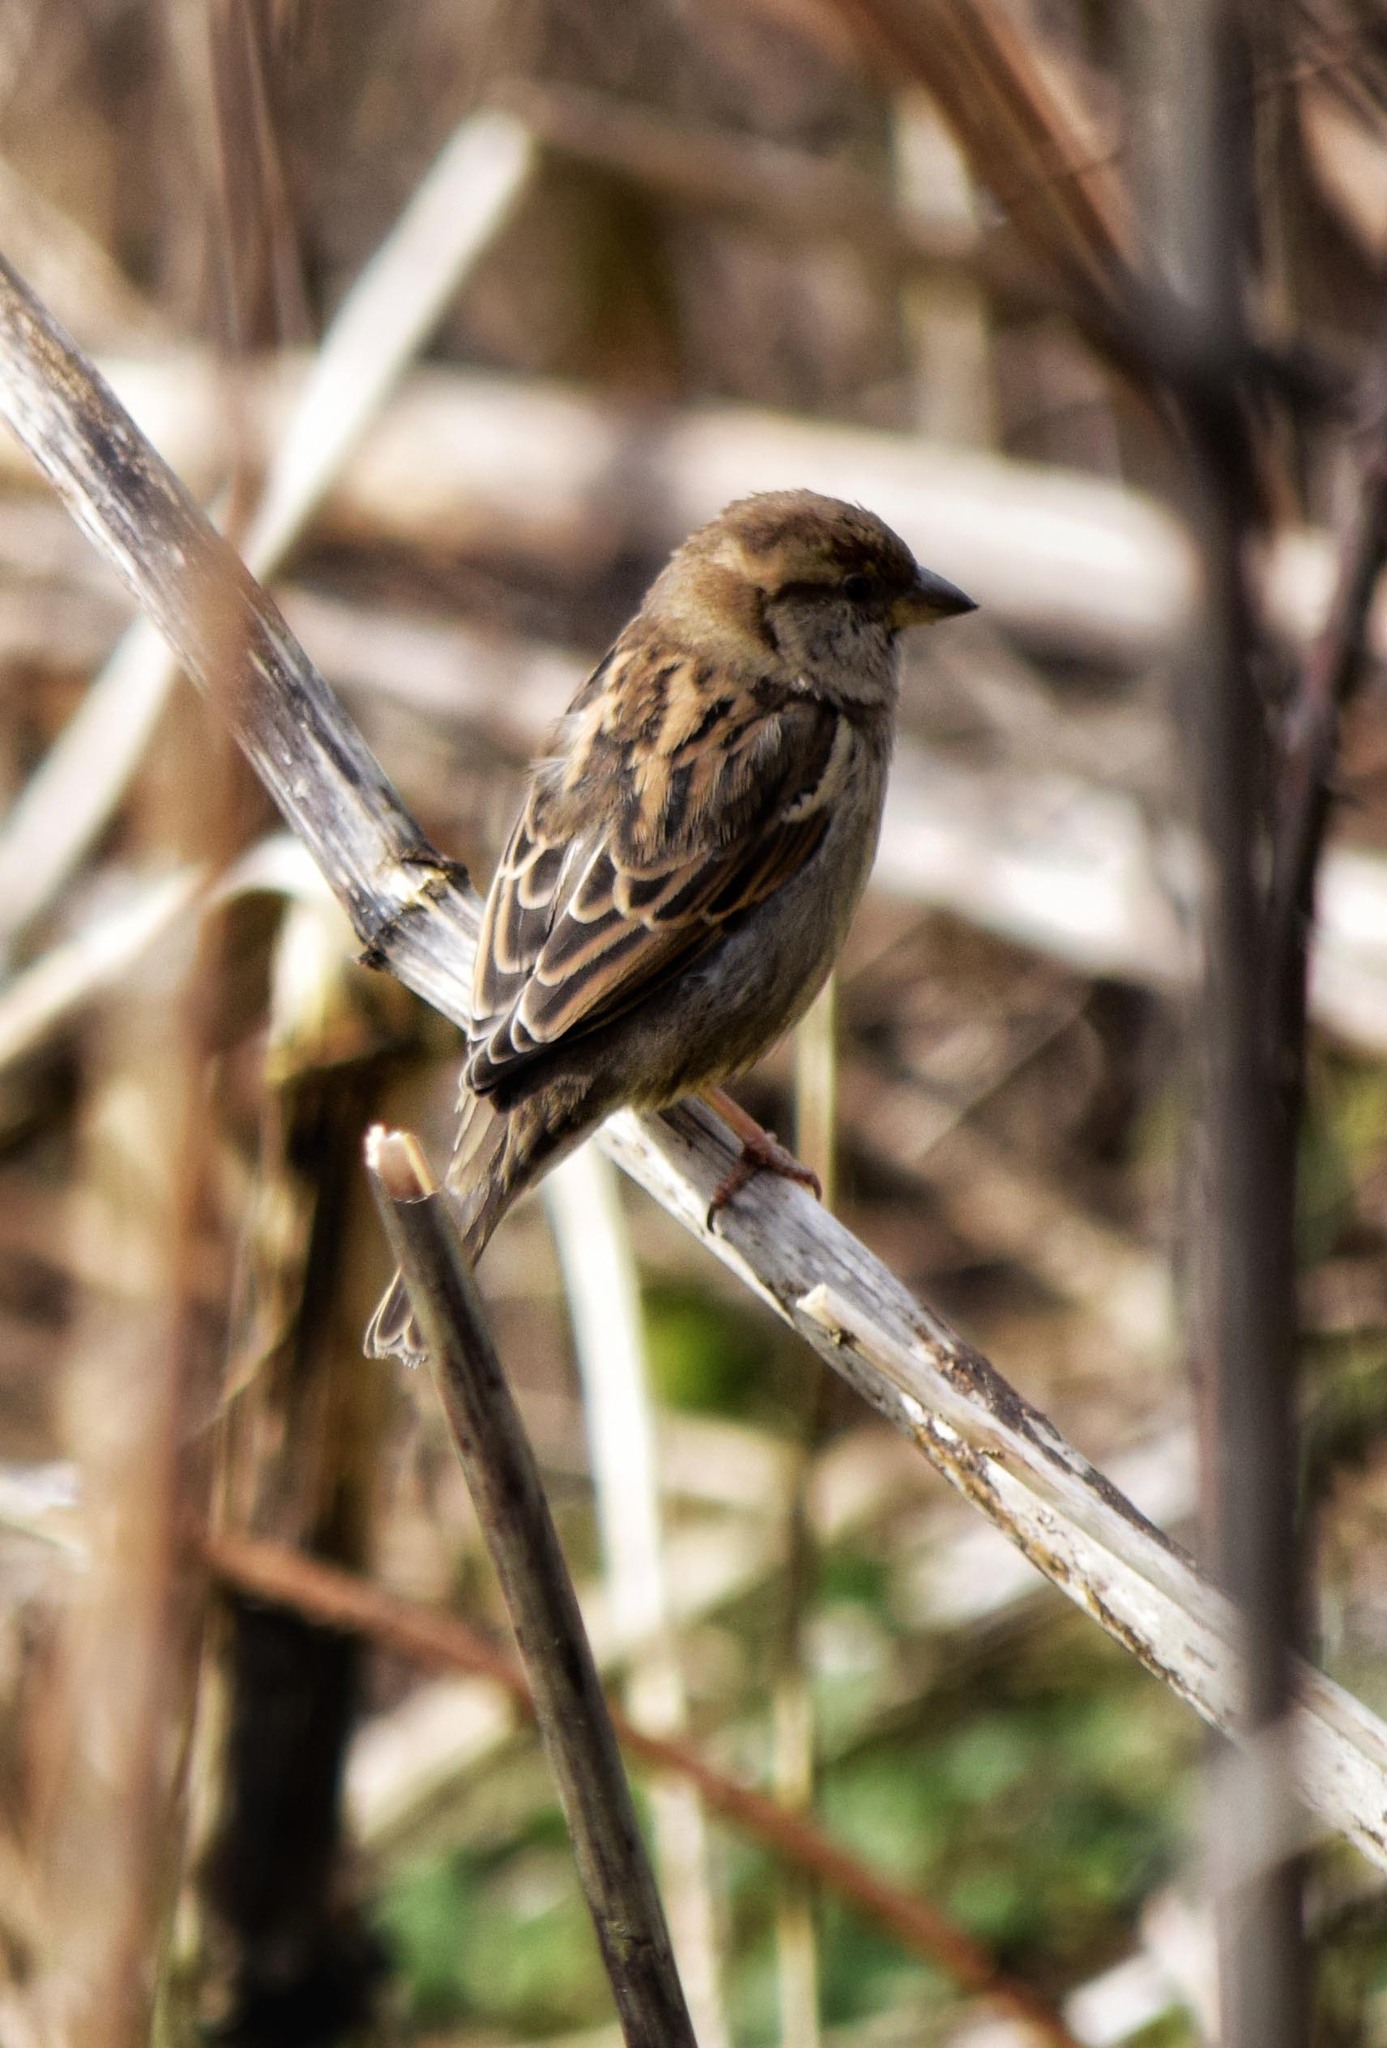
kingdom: Animalia
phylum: Chordata
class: Aves
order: Passeriformes
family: Passeridae
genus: Passer
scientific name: Passer domesticus
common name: House sparrow
